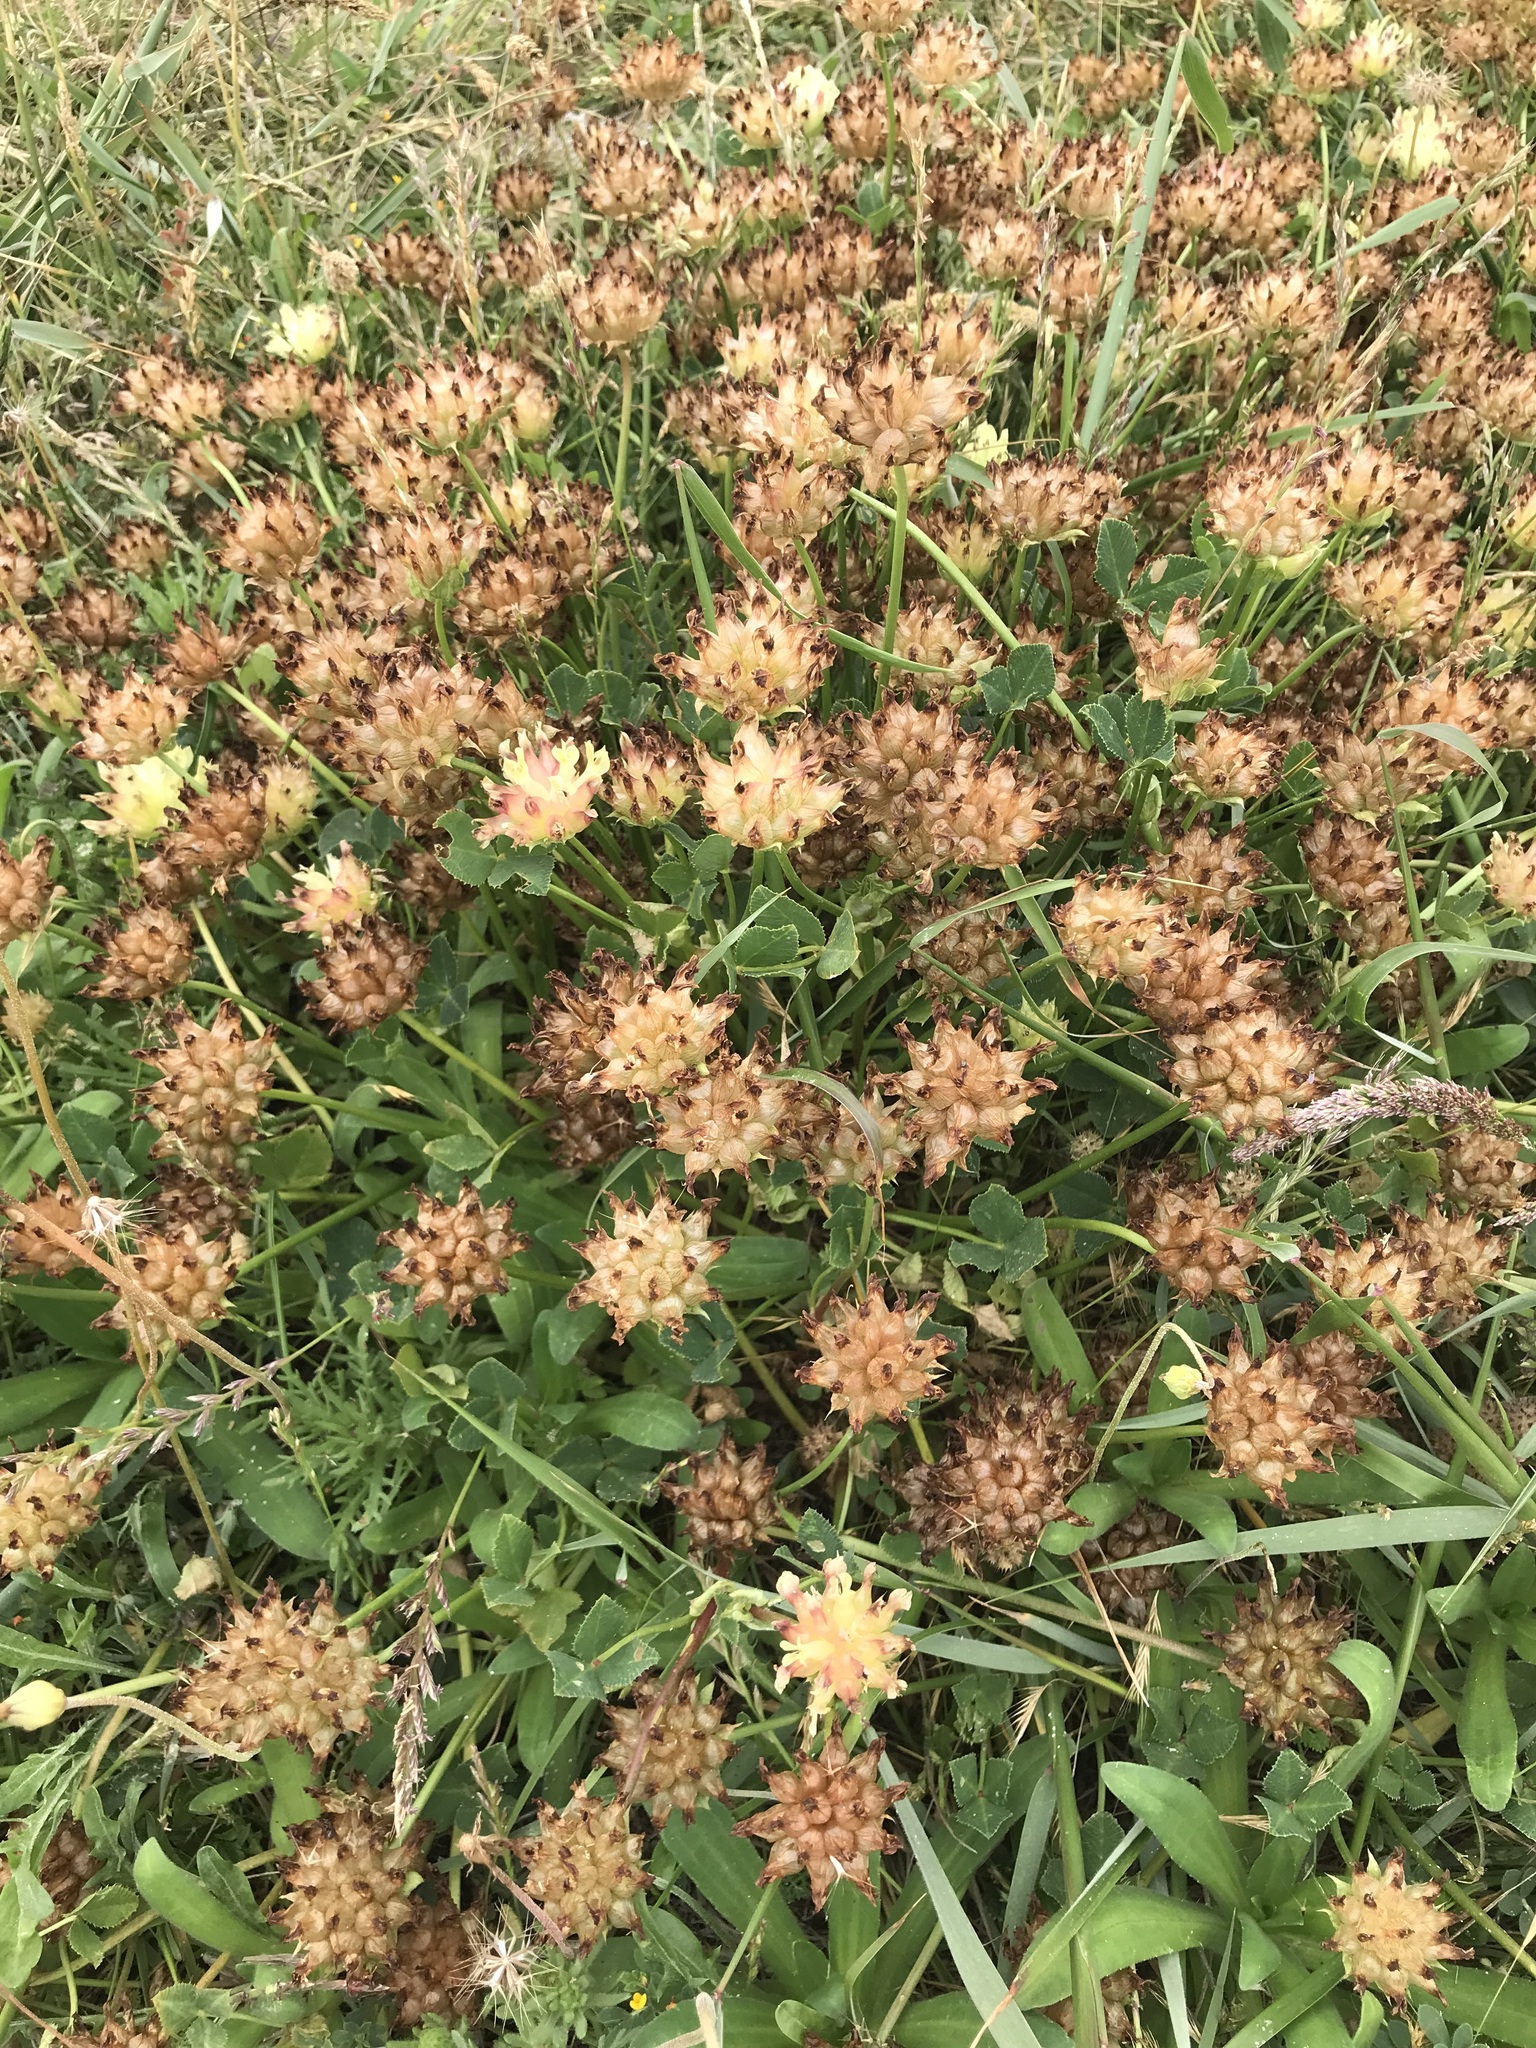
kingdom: Plantae
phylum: Tracheophyta
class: Magnoliopsida
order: Fabales
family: Fabaceae
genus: Trifolium
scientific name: Trifolium fucatum
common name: Puff clover
